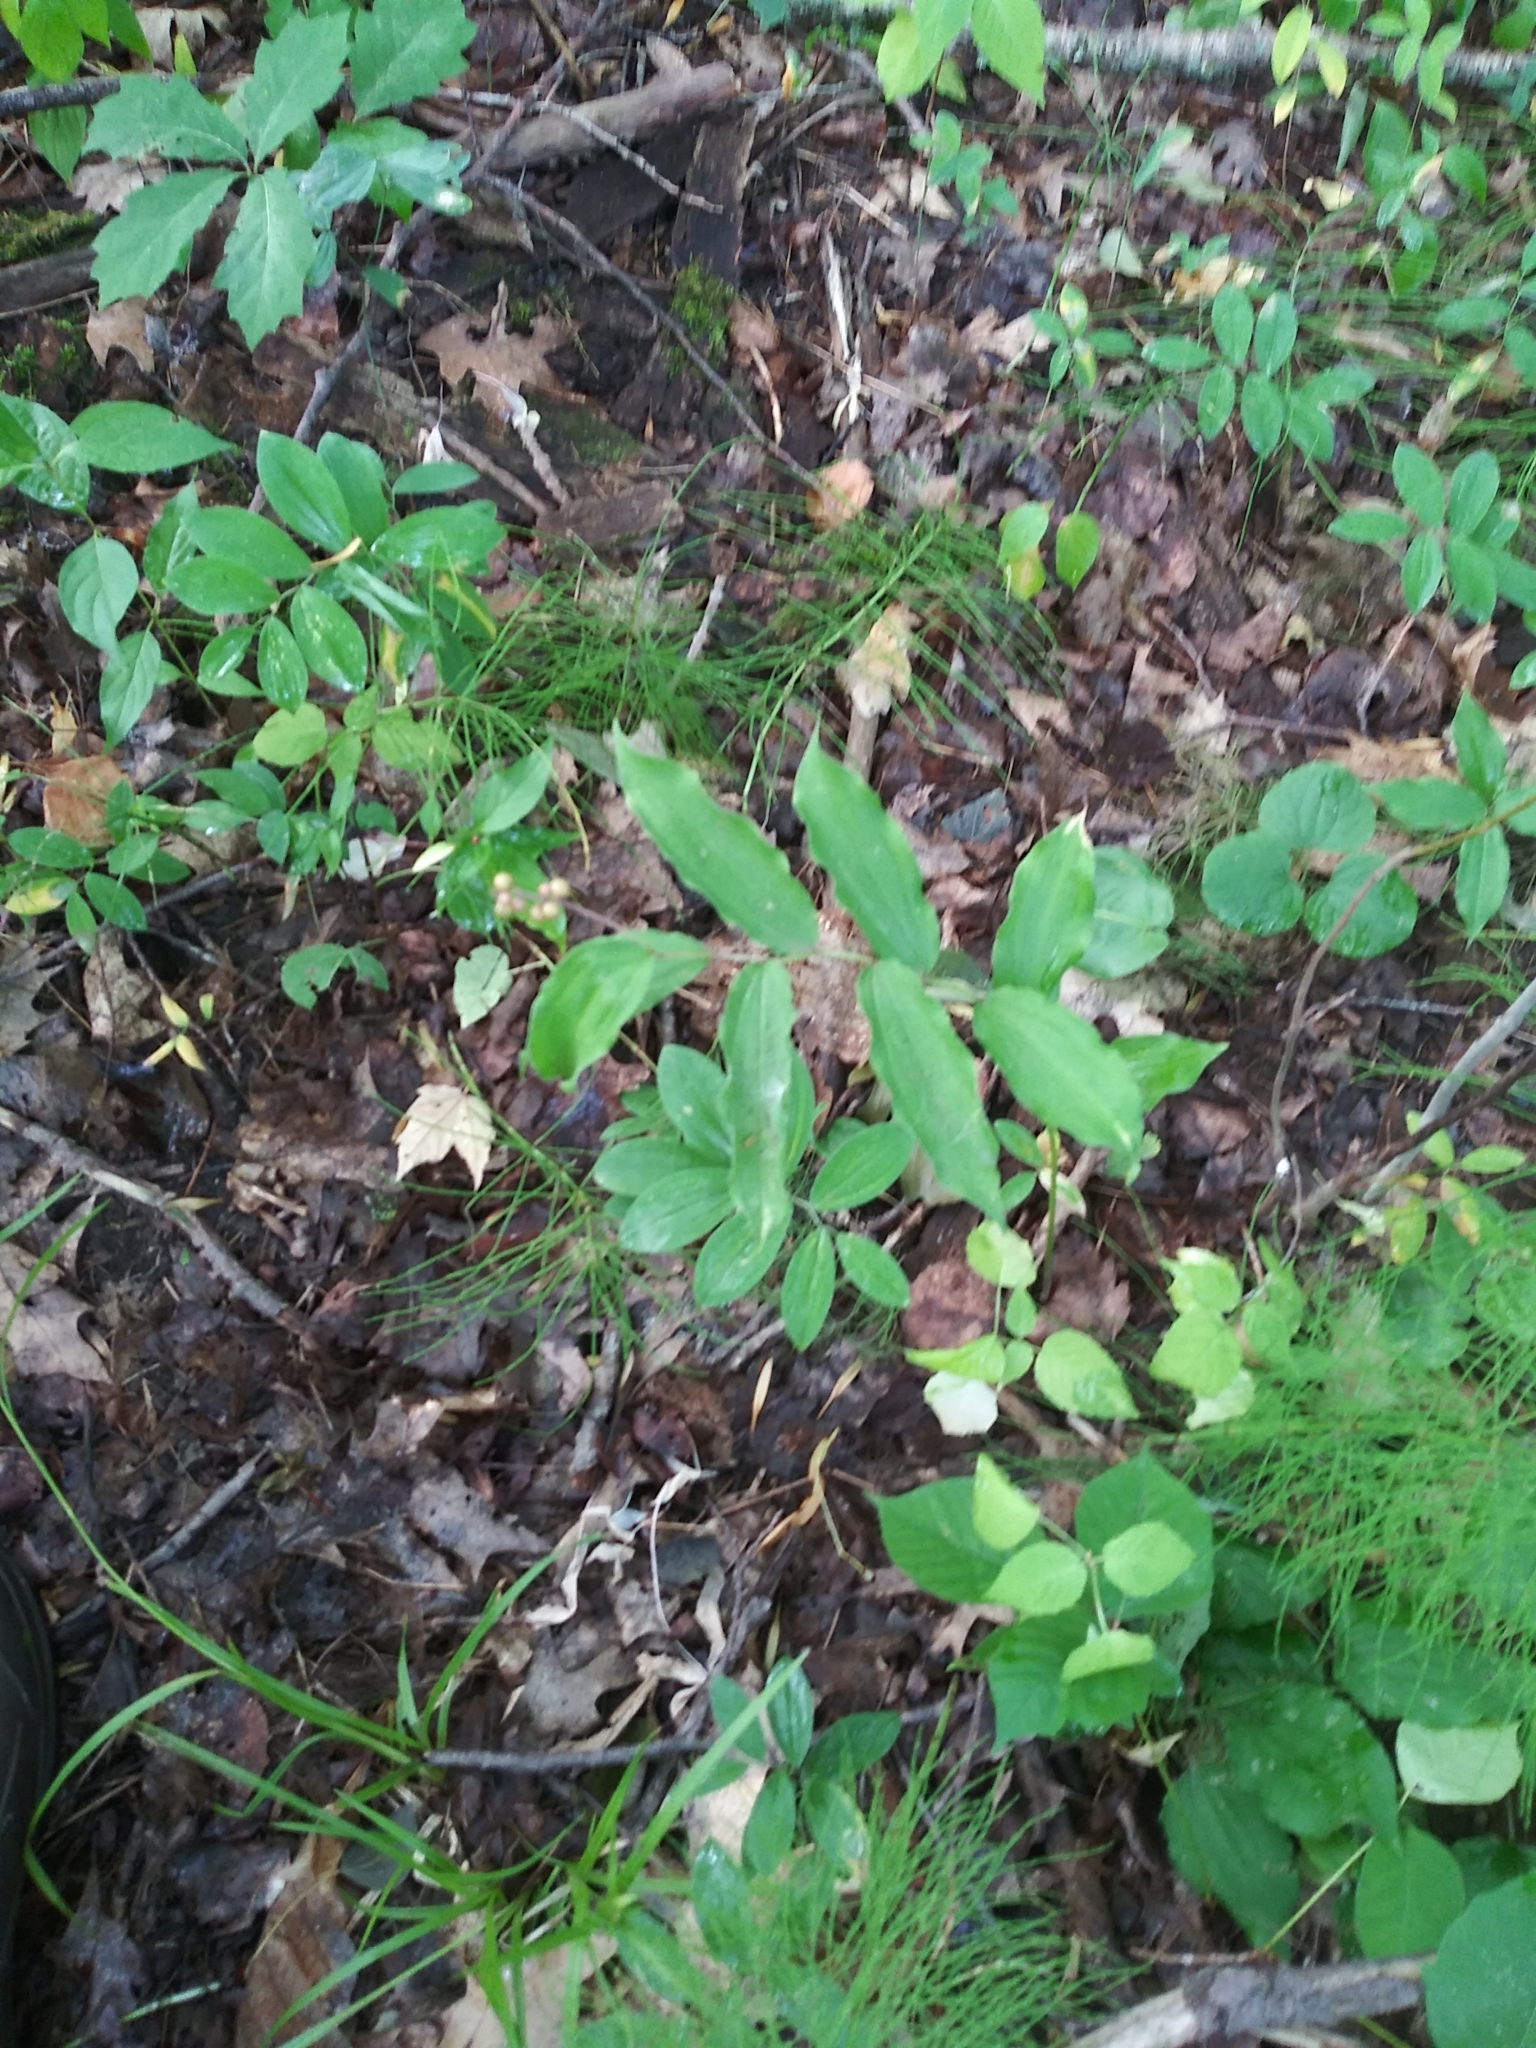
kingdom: Plantae
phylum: Tracheophyta
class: Liliopsida
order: Asparagales
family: Asparagaceae
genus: Maianthemum
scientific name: Maianthemum racemosum
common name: False spikenard
